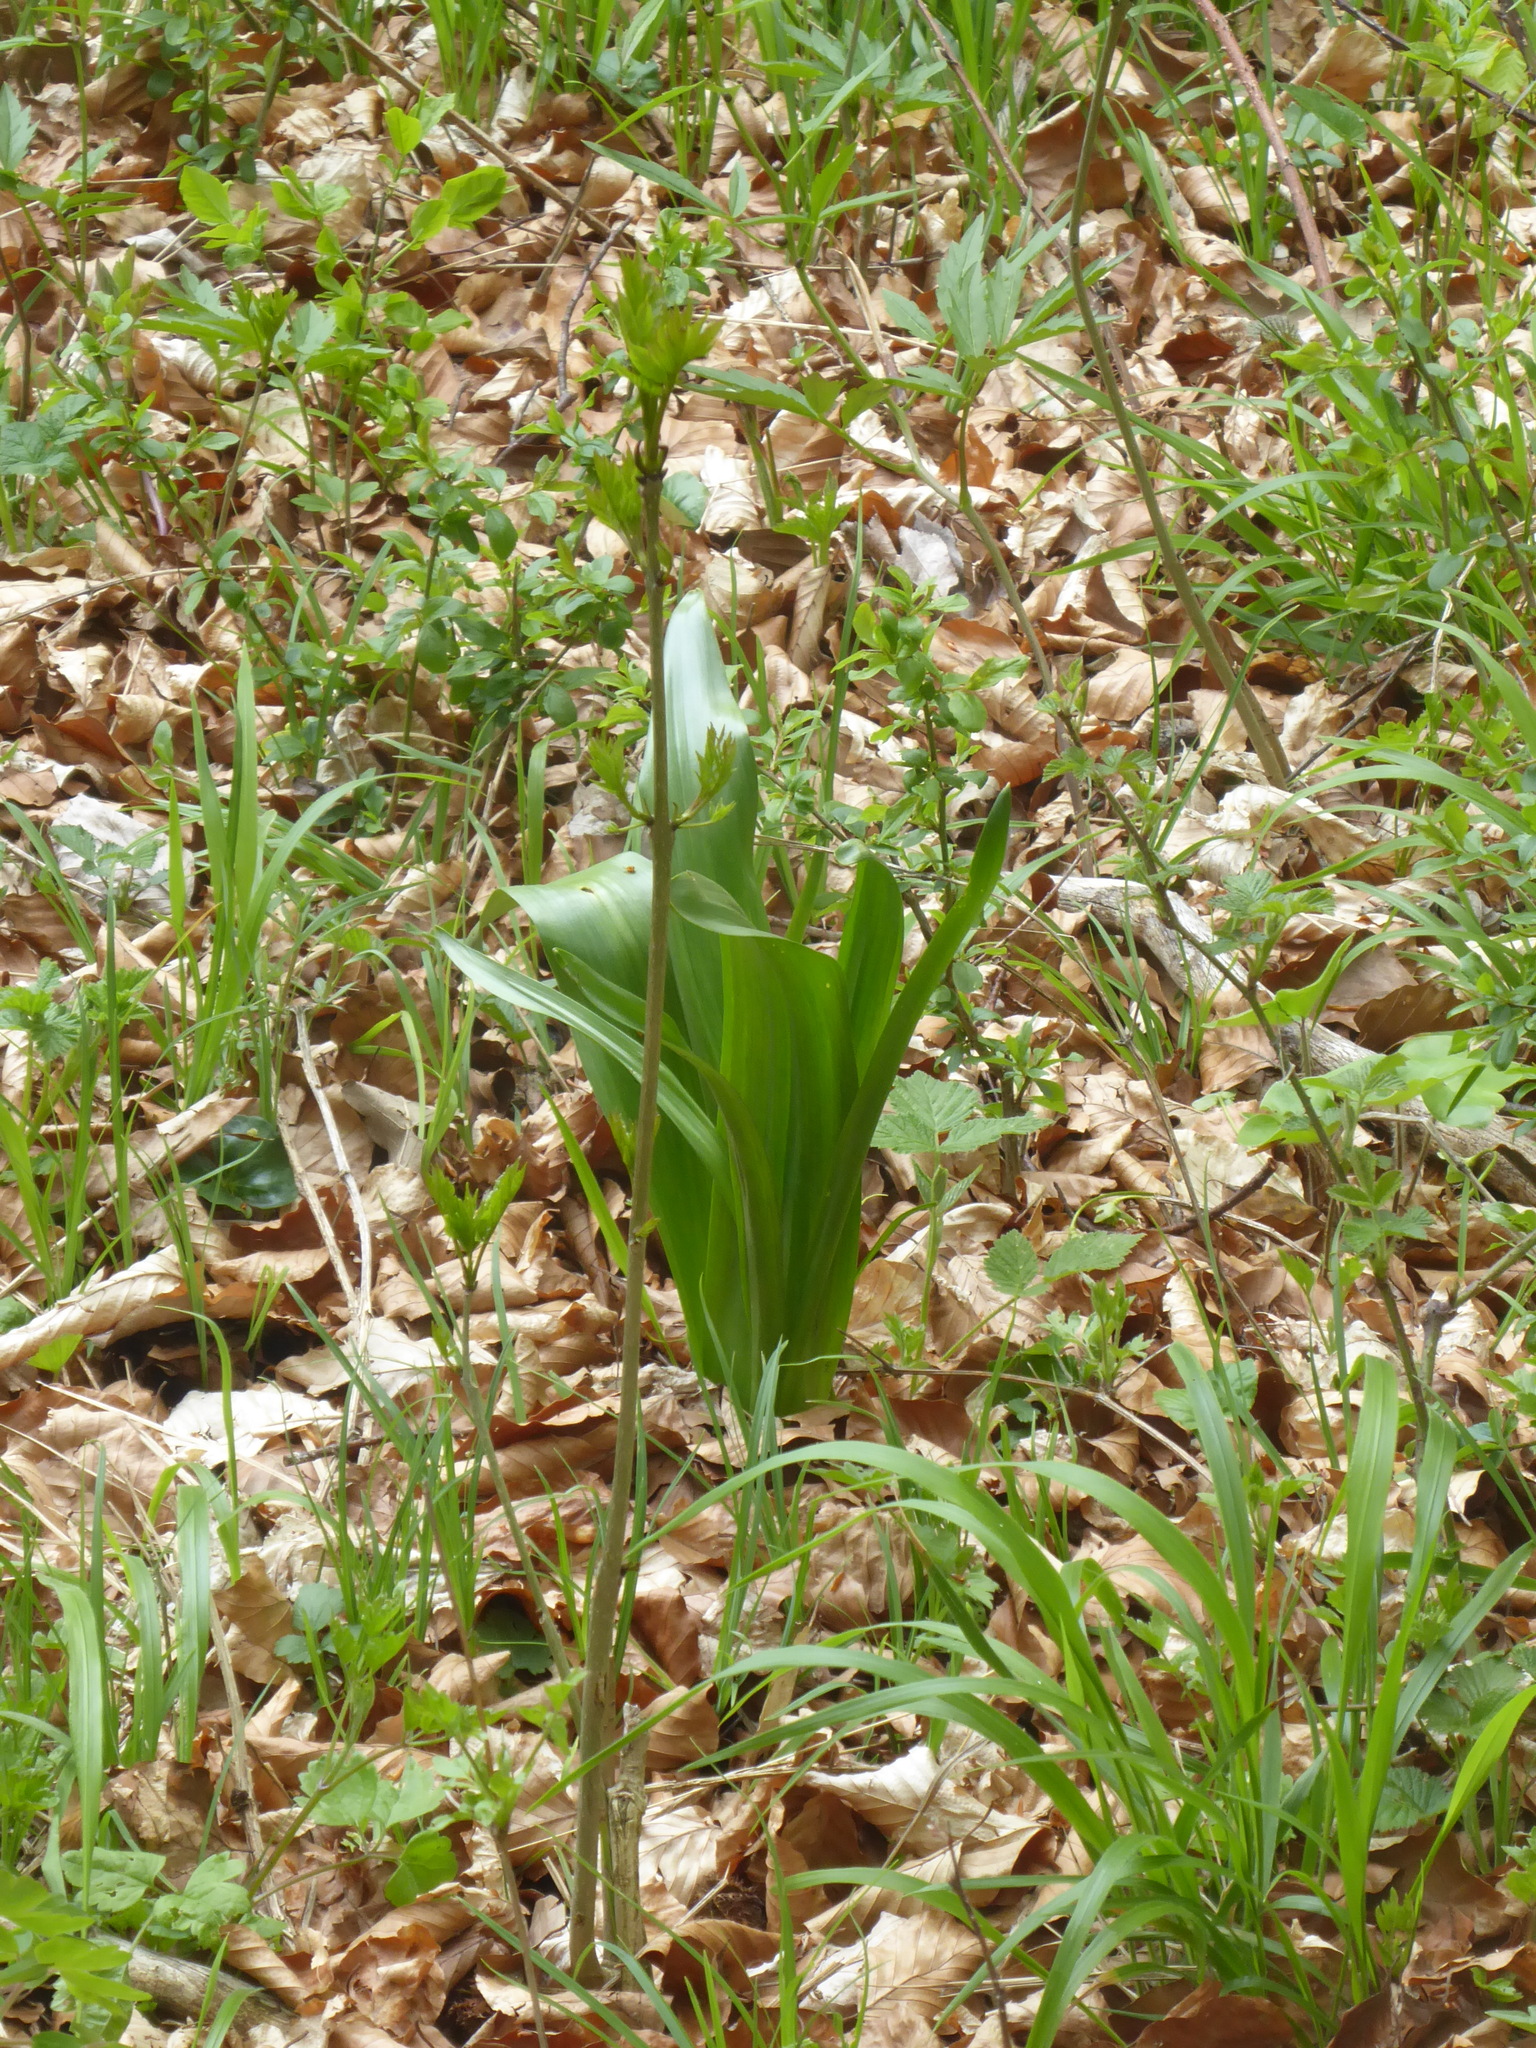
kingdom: Plantae
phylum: Tracheophyta
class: Liliopsida
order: Liliales
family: Colchicaceae
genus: Colchicum
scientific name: Colchicum autumnale
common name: Autumn crocus
